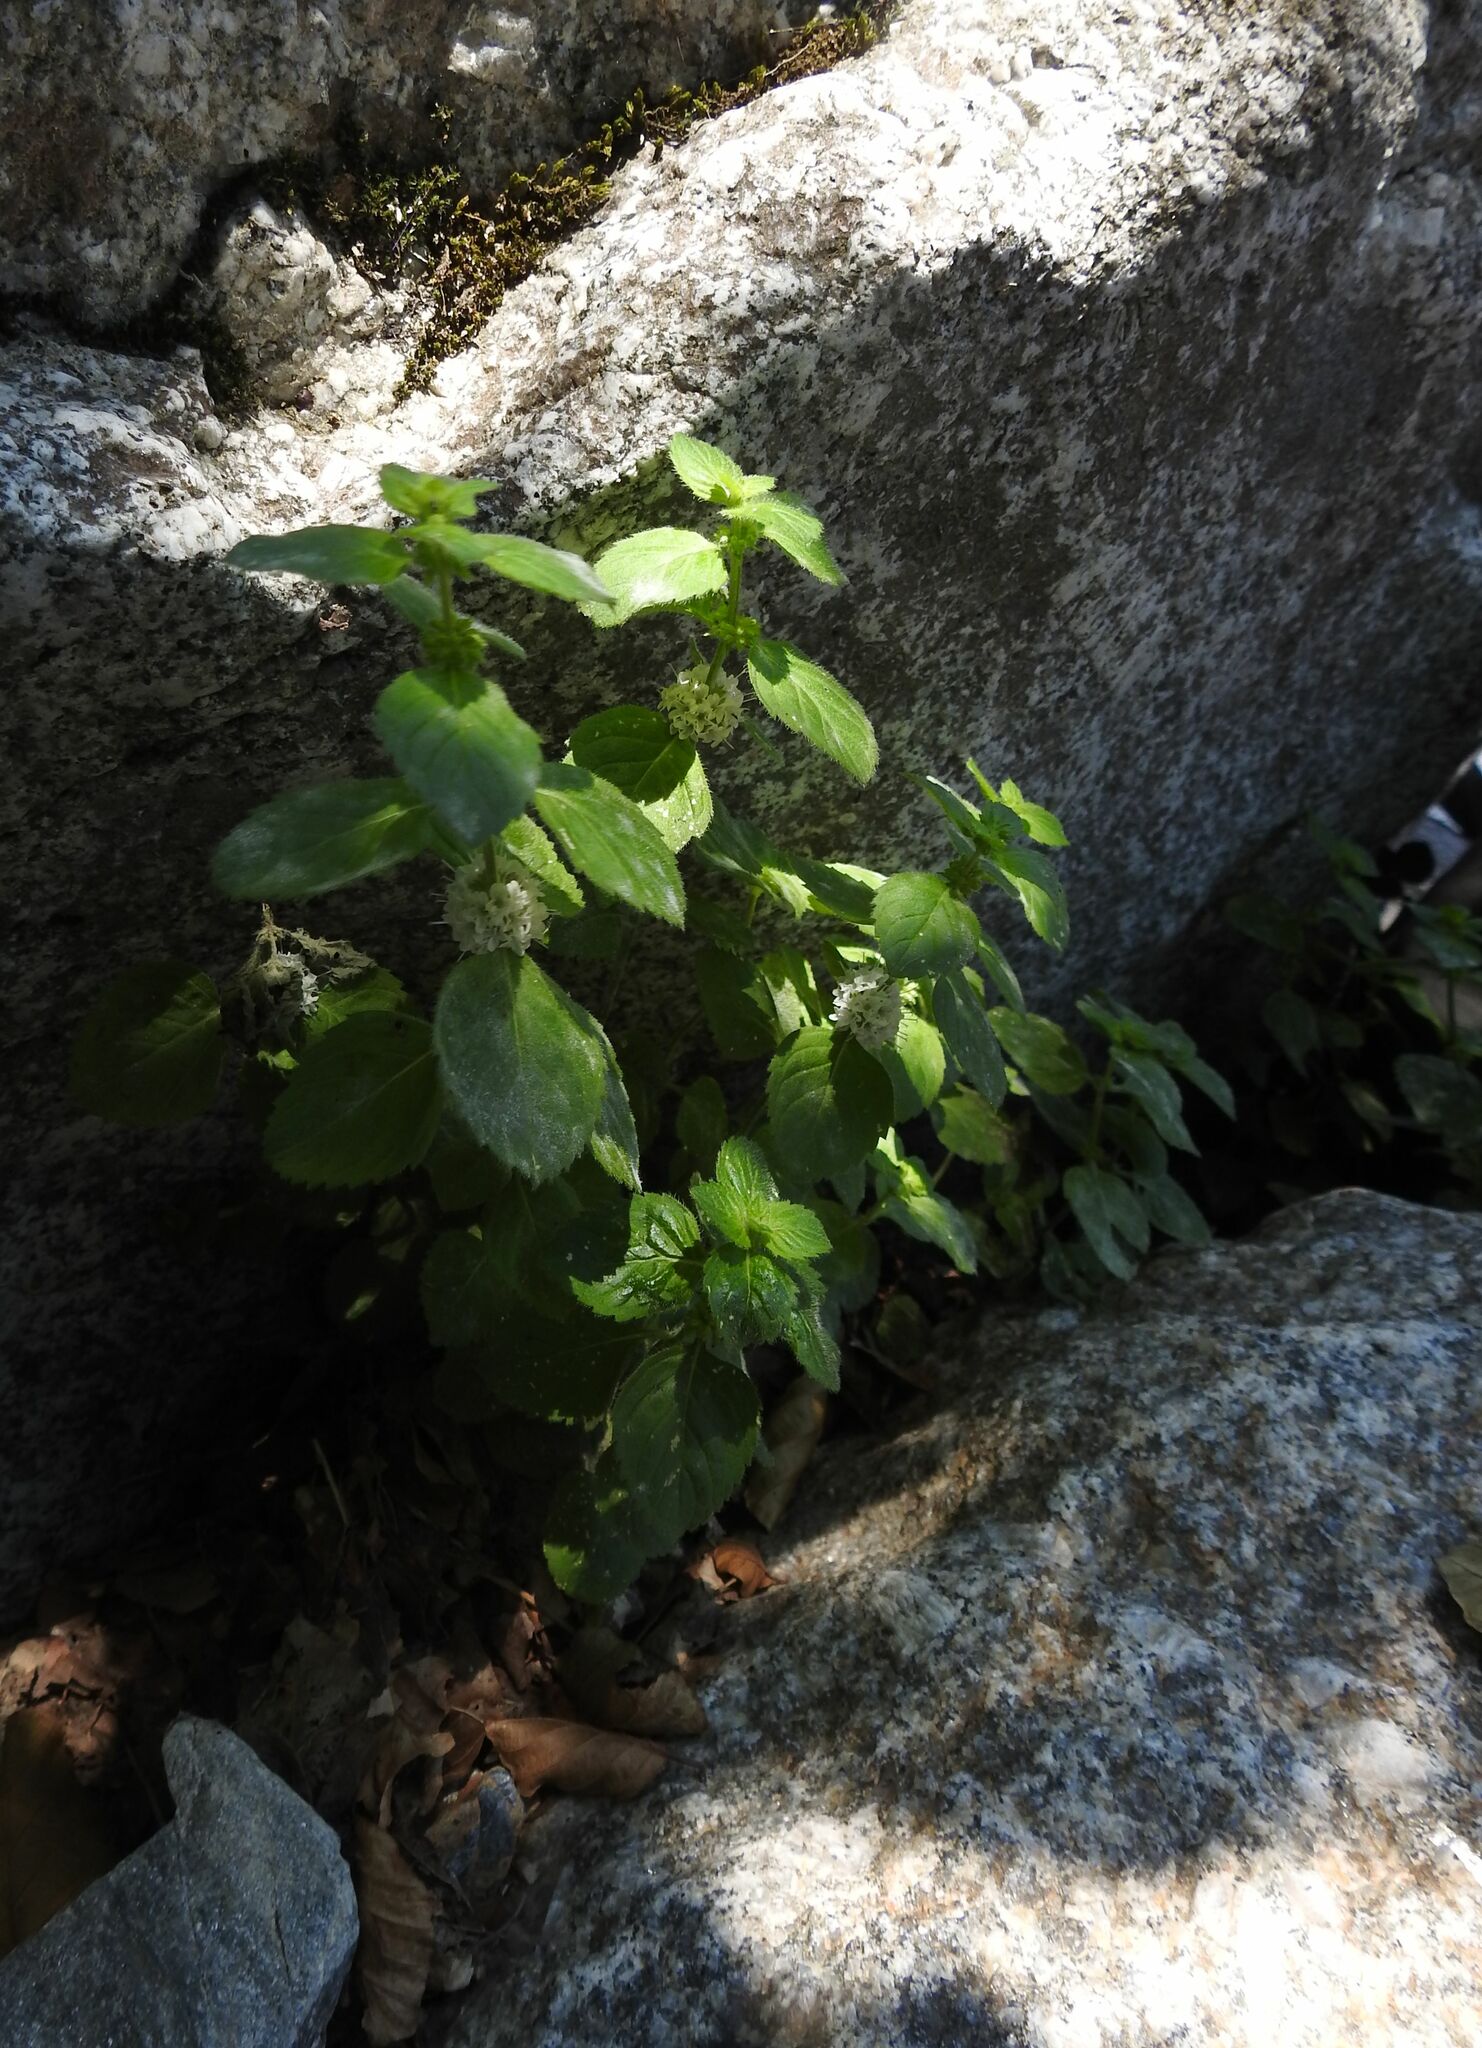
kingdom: Plantae
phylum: Tracheophyta
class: Magnoliopsida
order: Lamiales
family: Lamiaceae
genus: Mentha
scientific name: Mentha arvensis
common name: Corn mint
